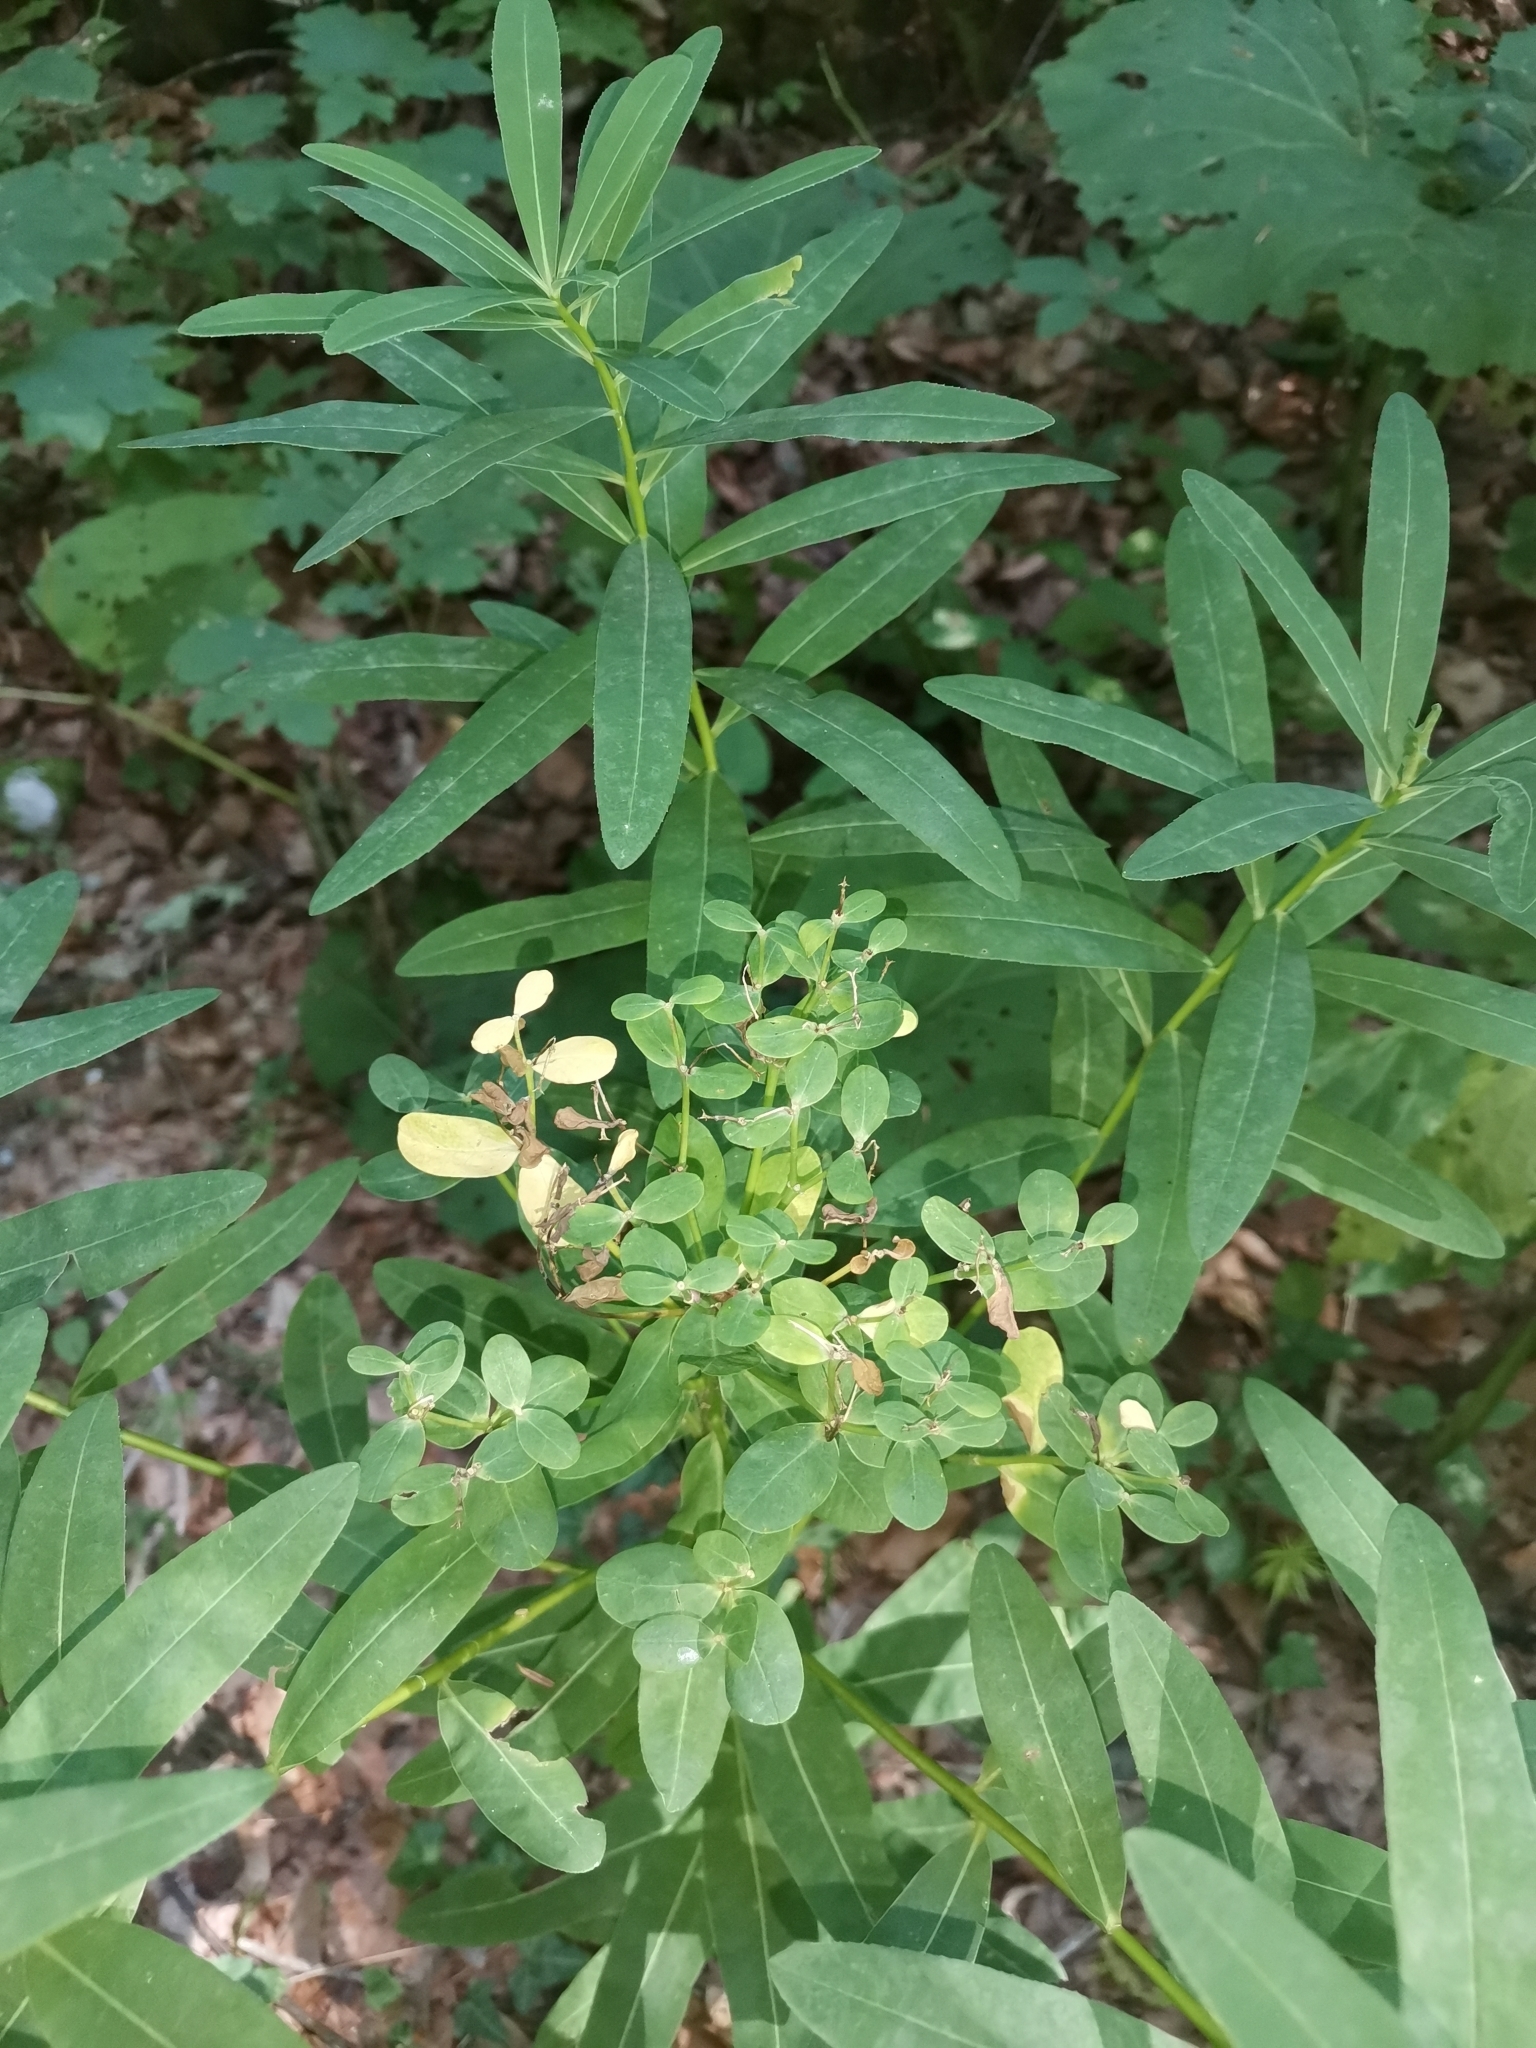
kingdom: Plantae
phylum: Tracheophyta
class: Magnoliopsida
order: Malpighiales
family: Euphorbiaceae
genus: Euphorbia
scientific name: Euphorbia illirica
